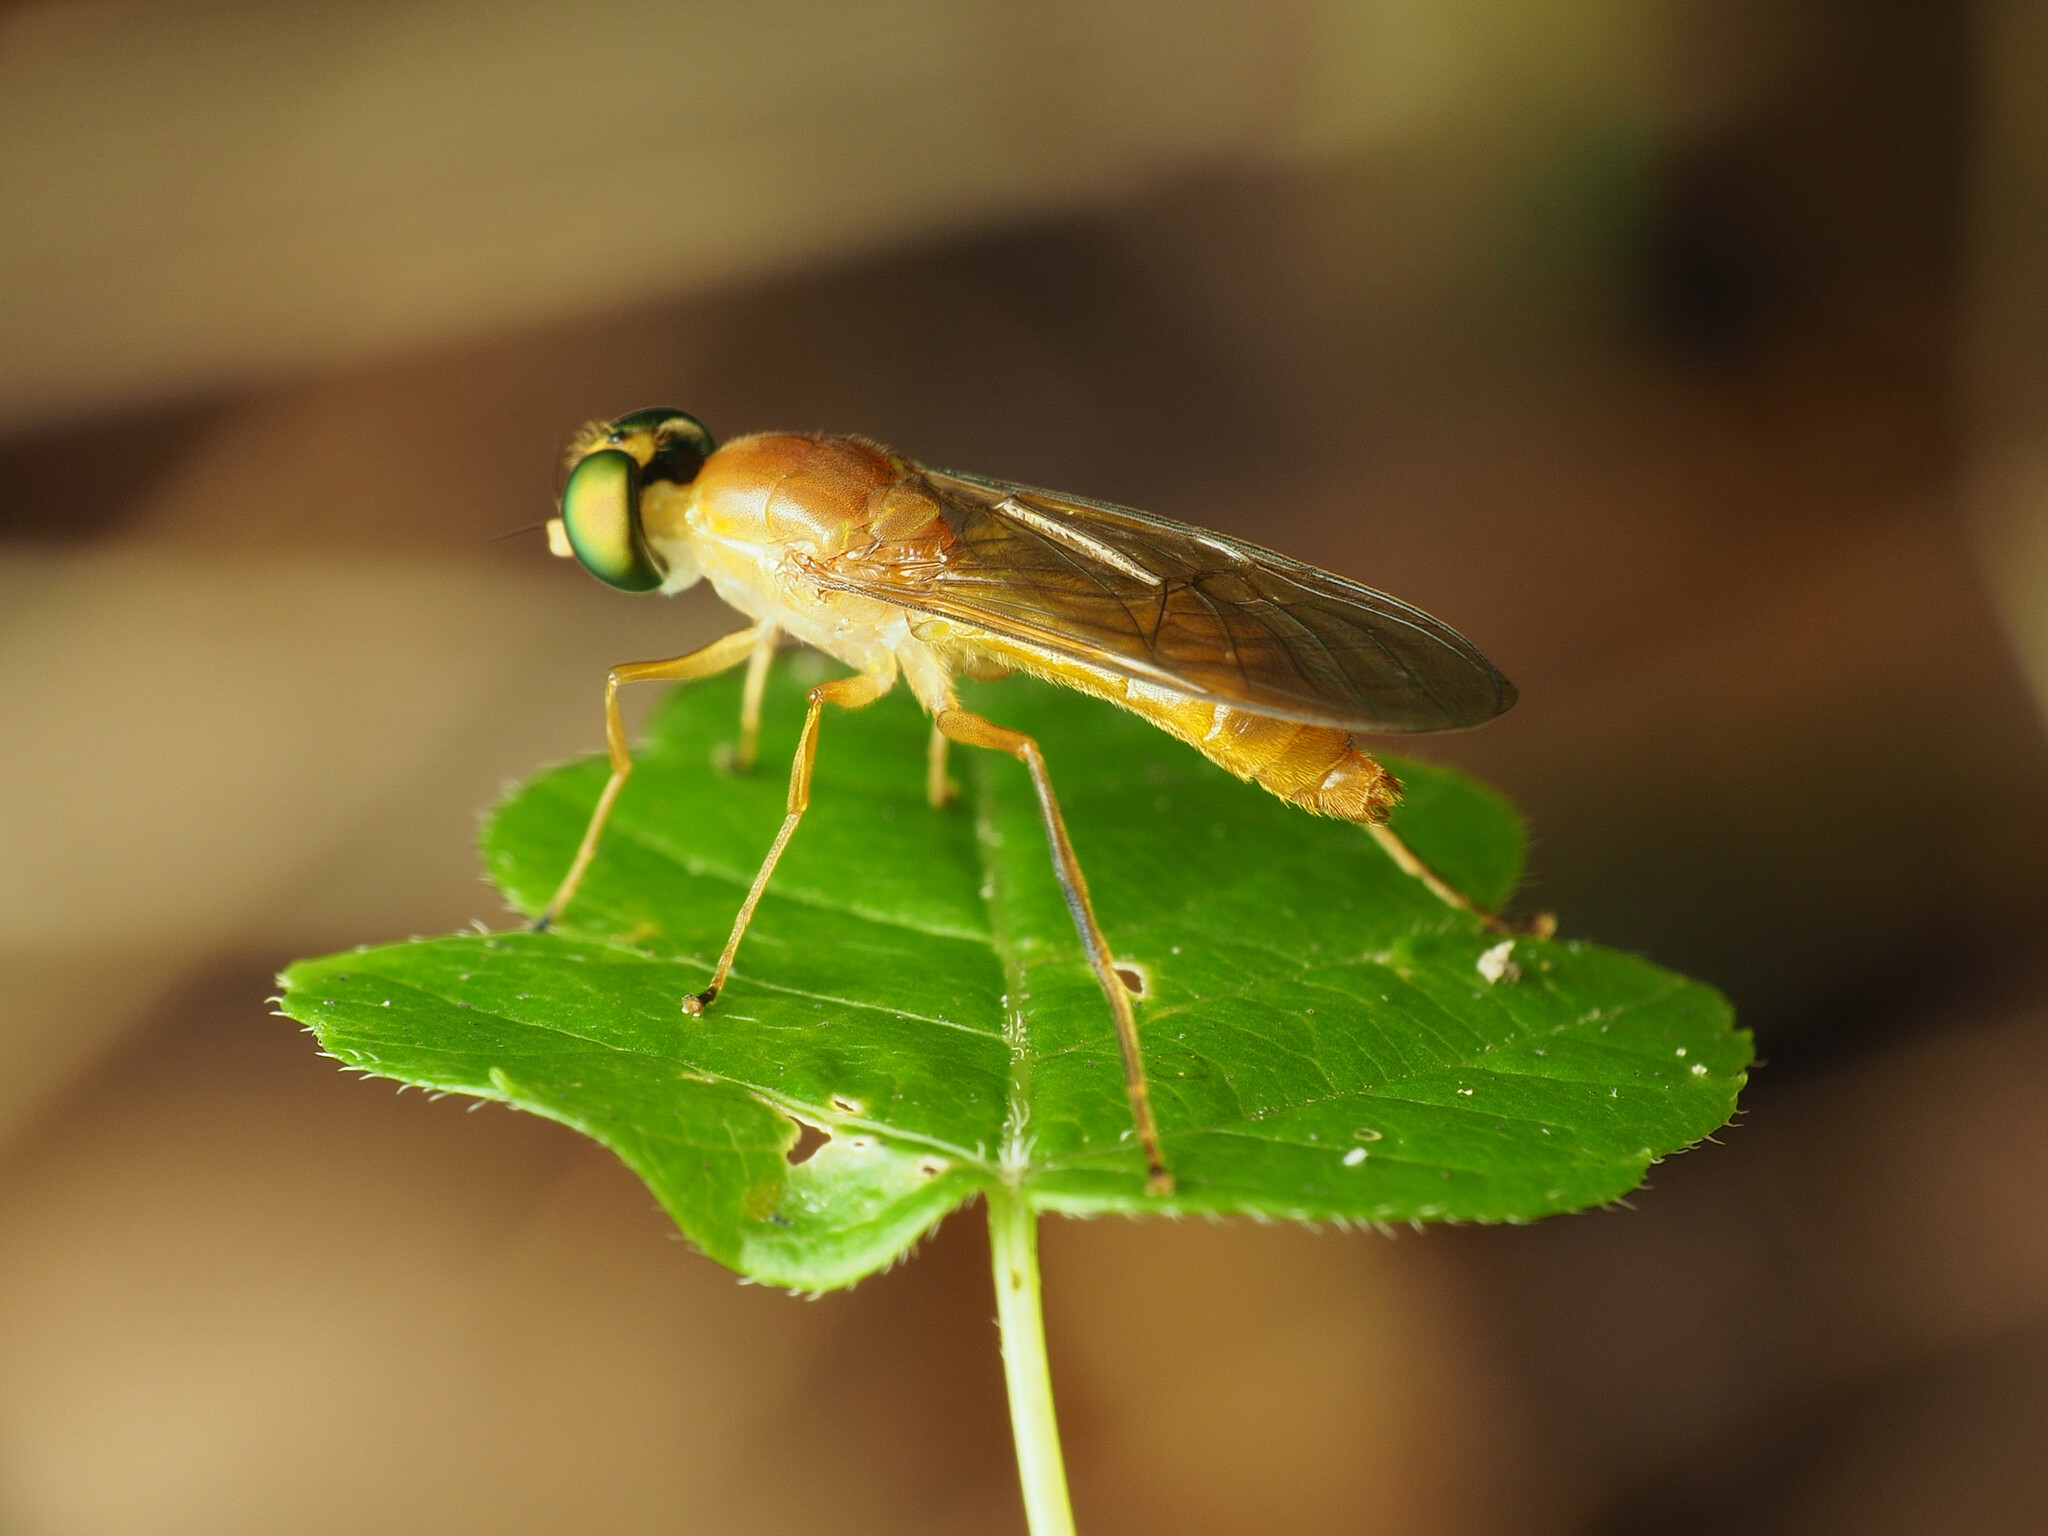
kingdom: Animalia
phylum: Arthropoda
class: Insecta
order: Diptera
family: Stratiomyidae
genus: Ptecticus
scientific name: Ptecticus trivittatus
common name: Compost fly
